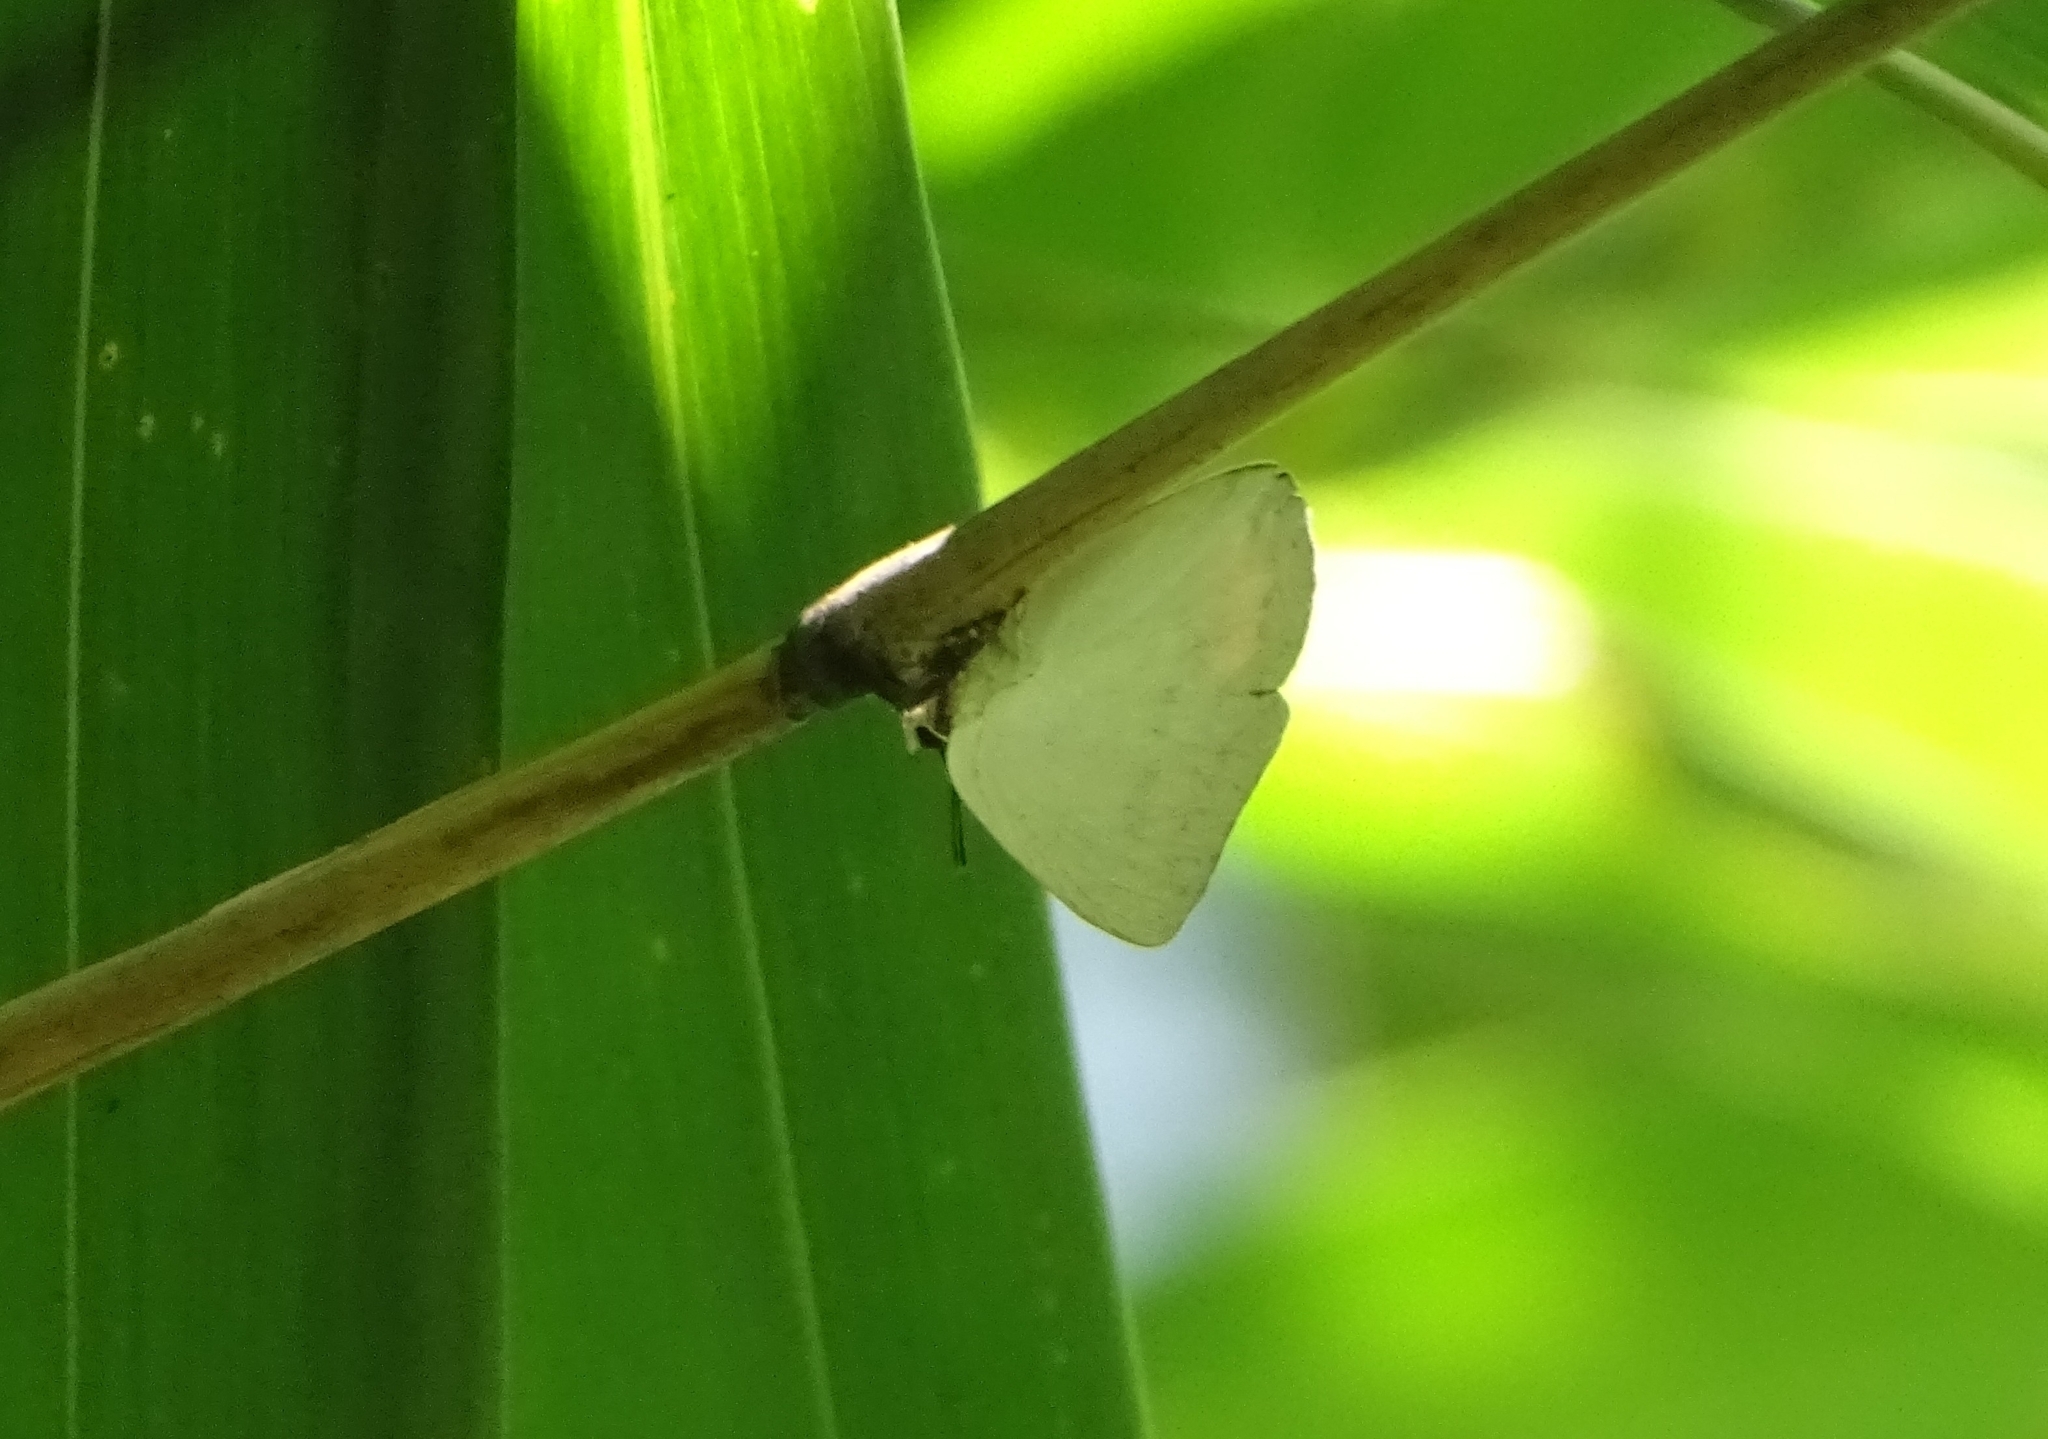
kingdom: Animalia
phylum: Arthropoda
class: Insecta
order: Lepidoptera
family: Lycaenidae
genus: Curetis
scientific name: Curetis thetis
